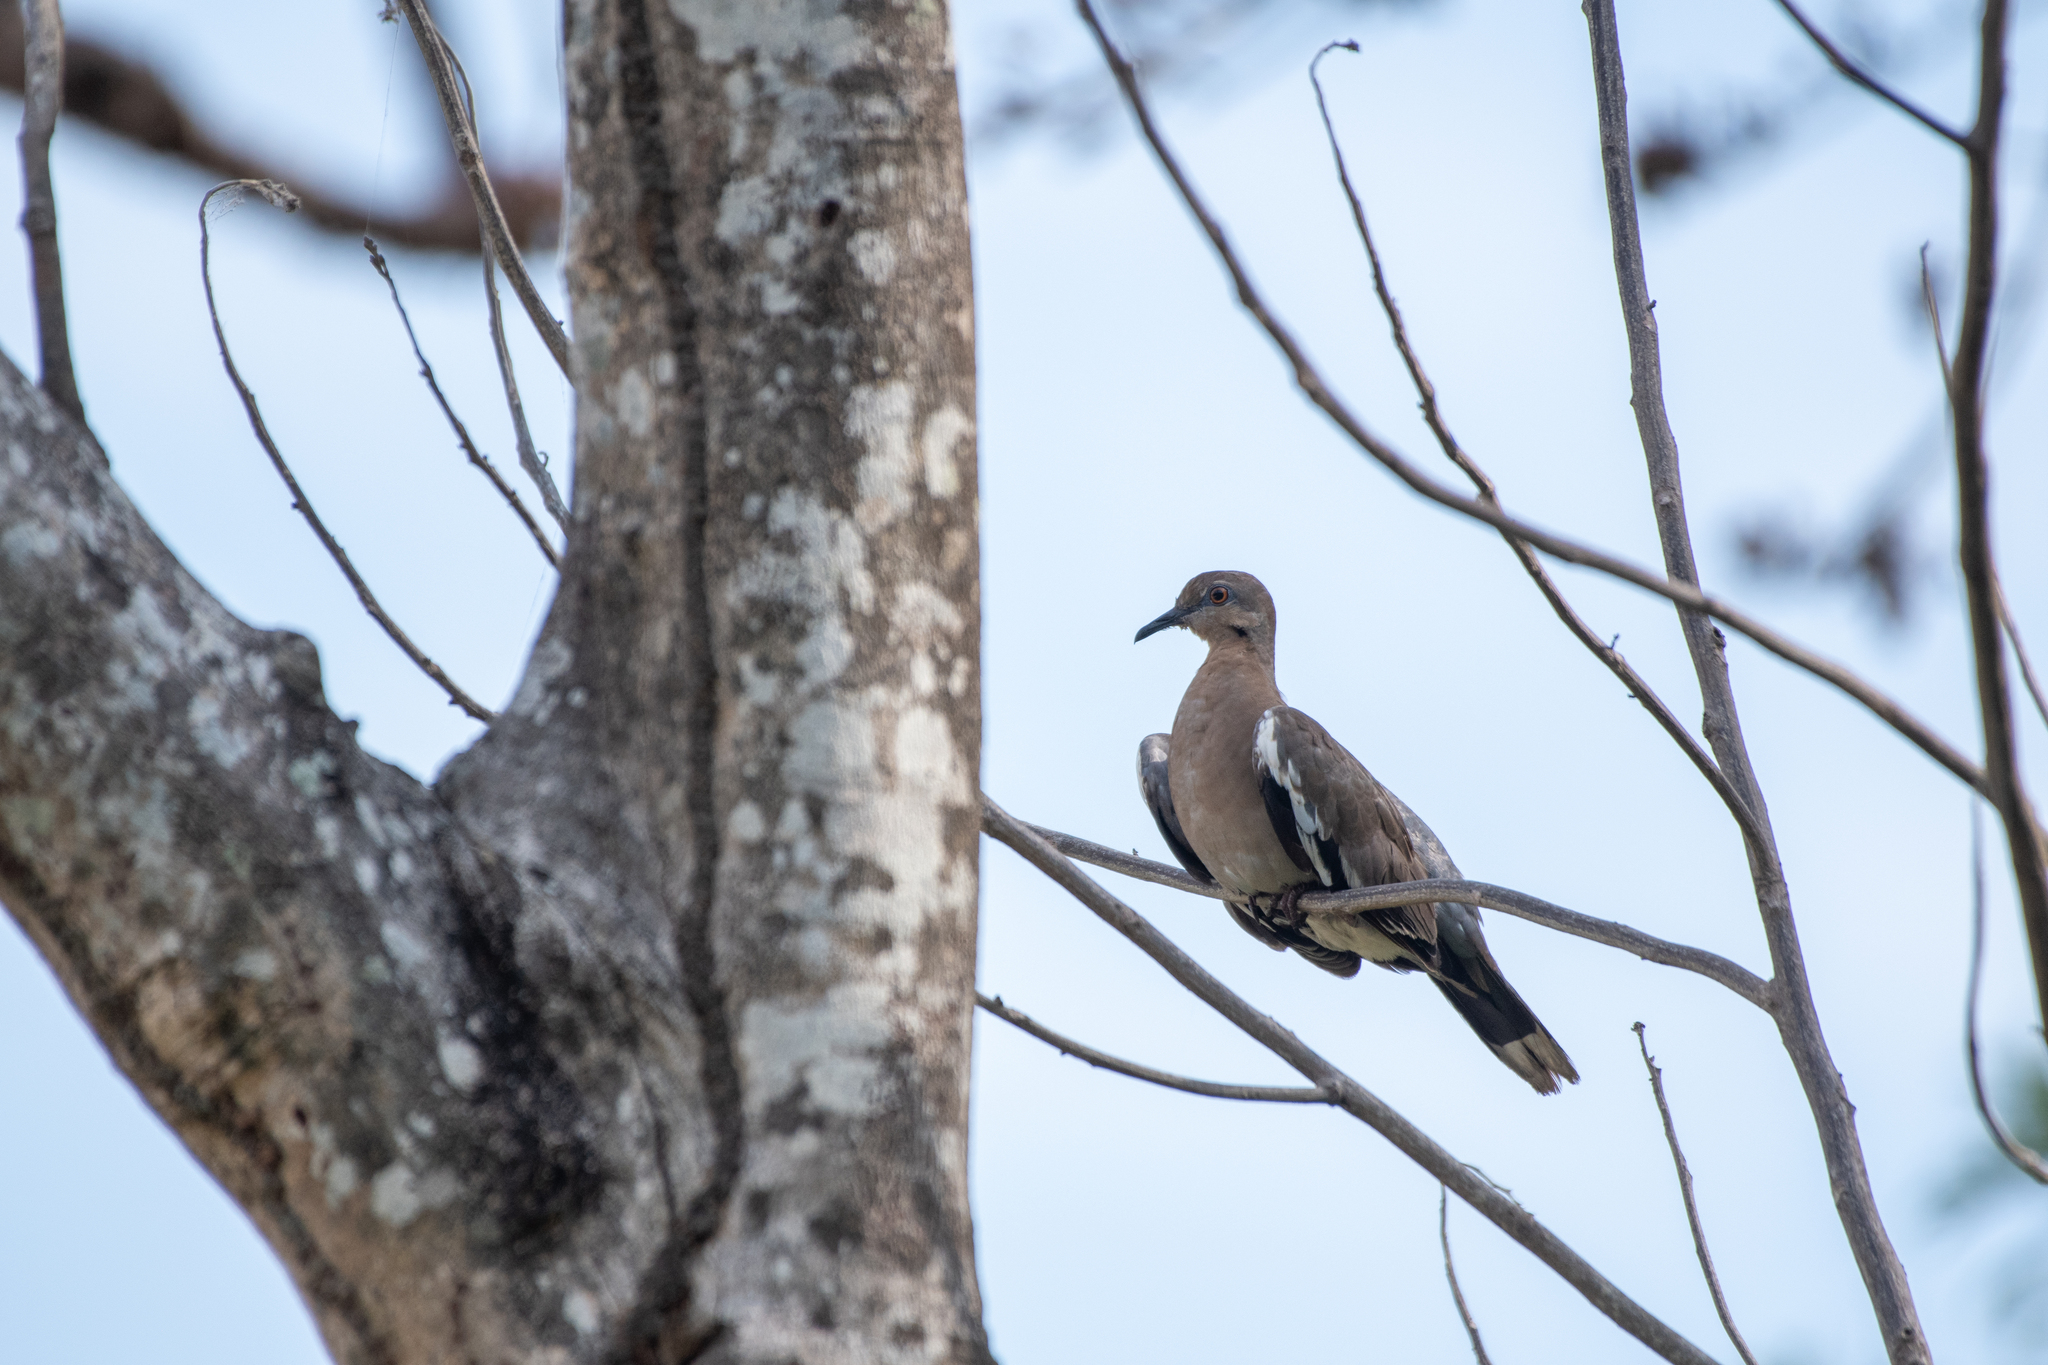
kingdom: Animalia
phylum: Chordata
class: Aves
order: Columbiformes
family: Columbidae
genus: Zenaida
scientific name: Zenaida asiatica
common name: White-winged dove
